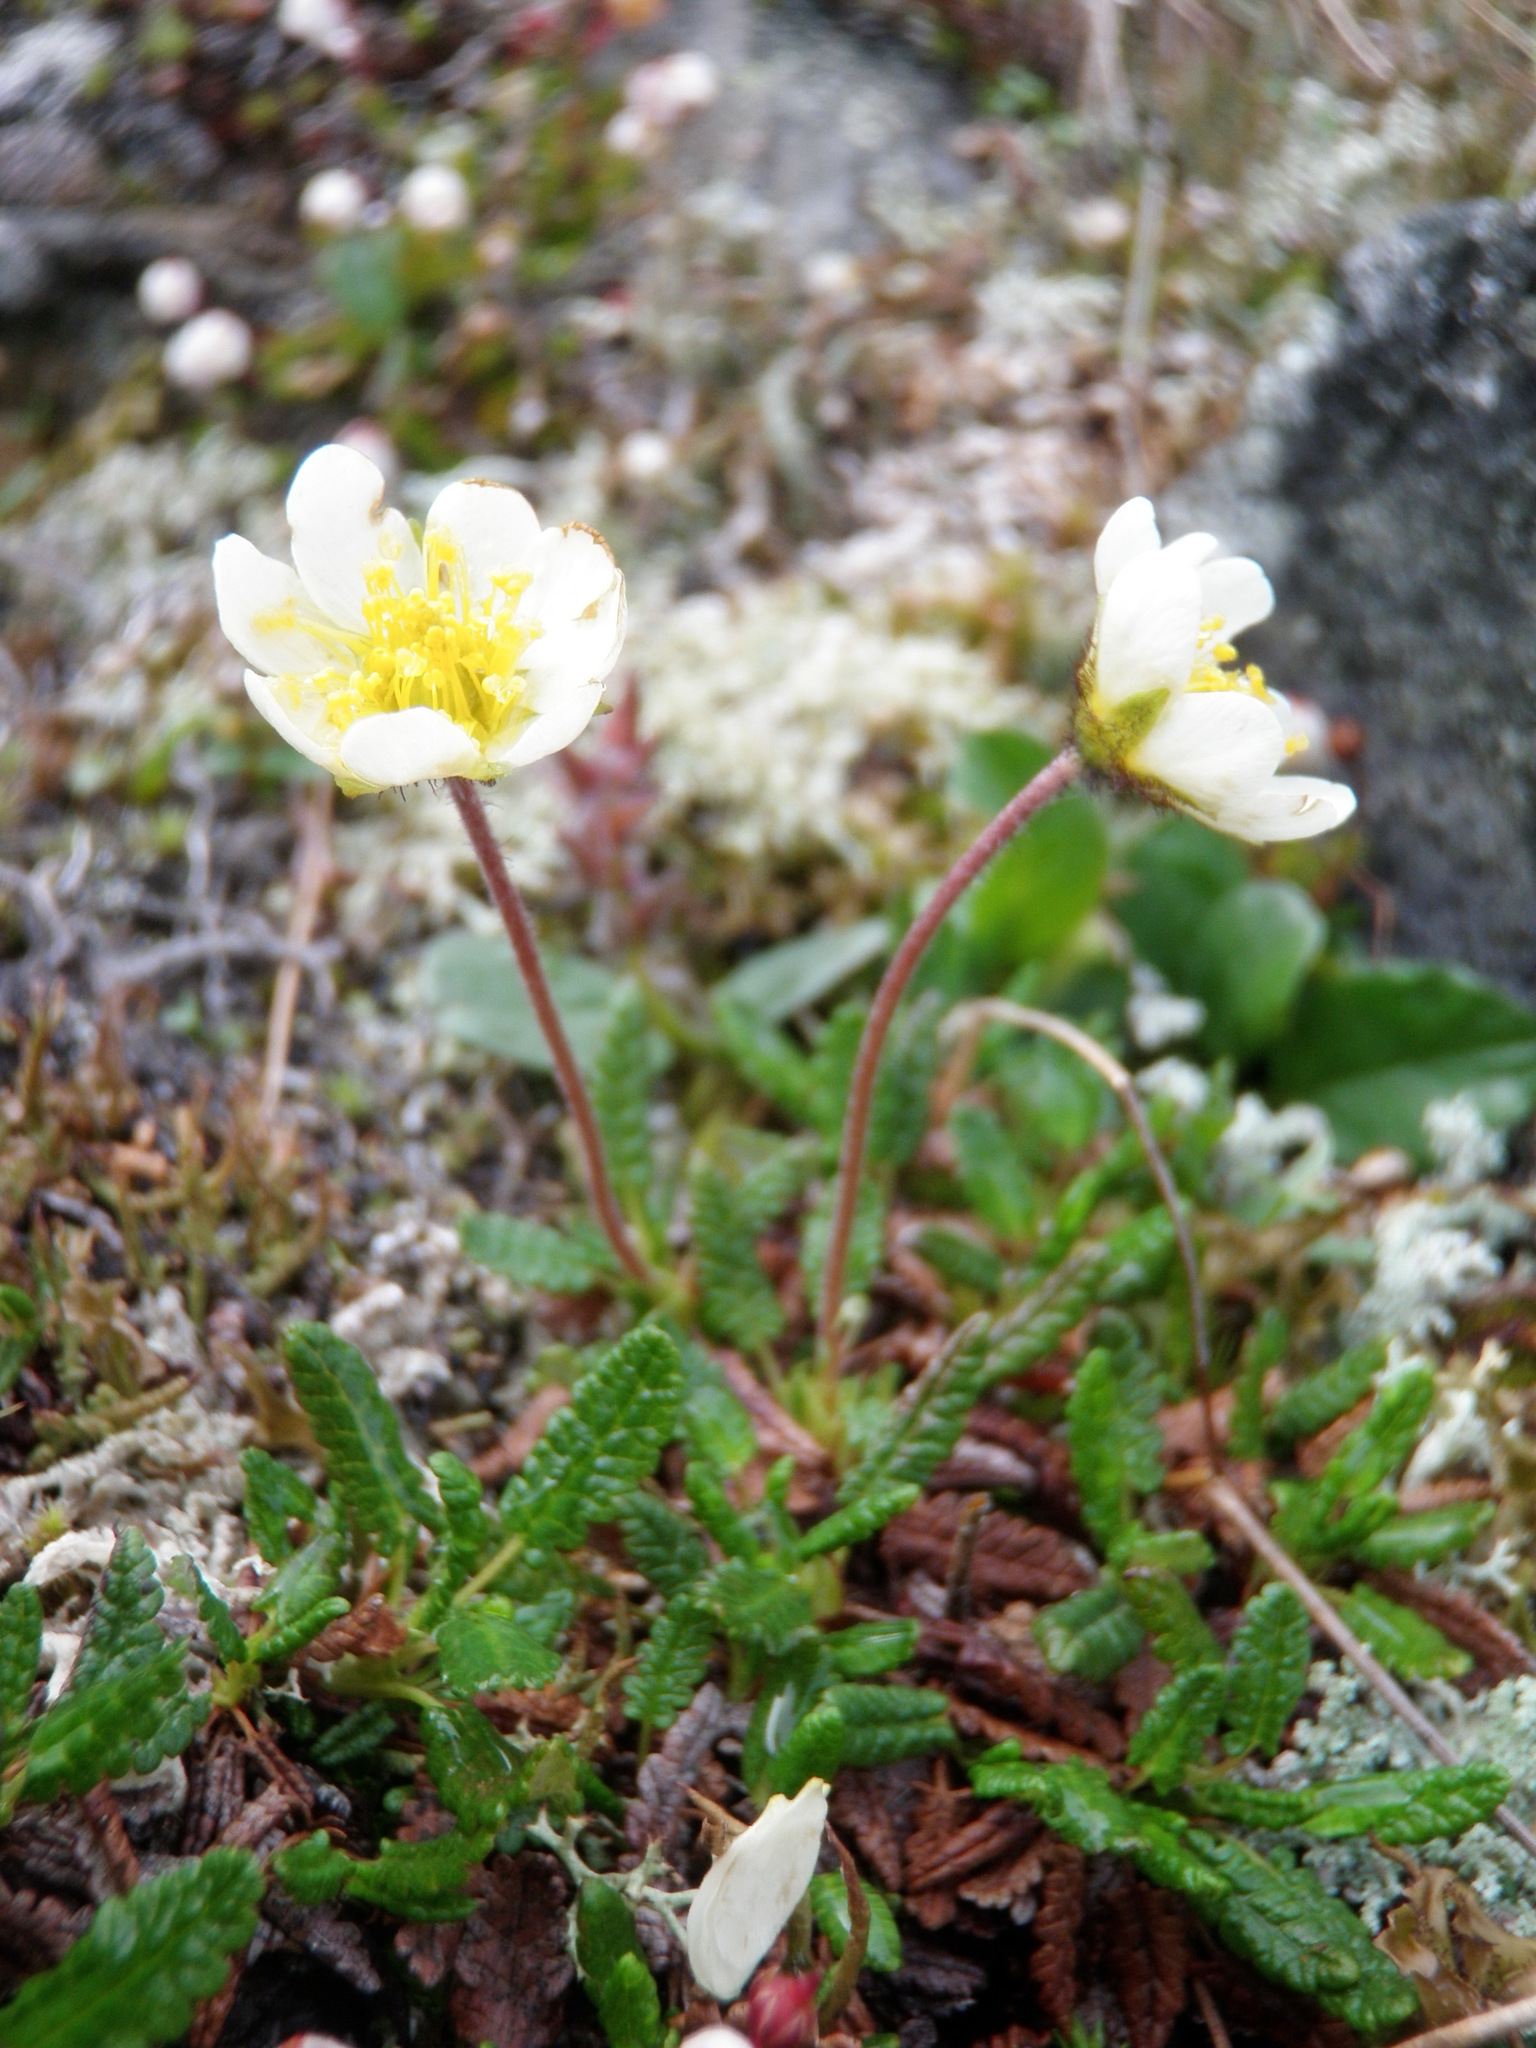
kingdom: Plantae
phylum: Tracheophyta
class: Magnoliopsida
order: Rosales
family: Rosaceae
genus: Dryas
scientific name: Dryas octopetala
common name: Eight-petal mountain-avens
